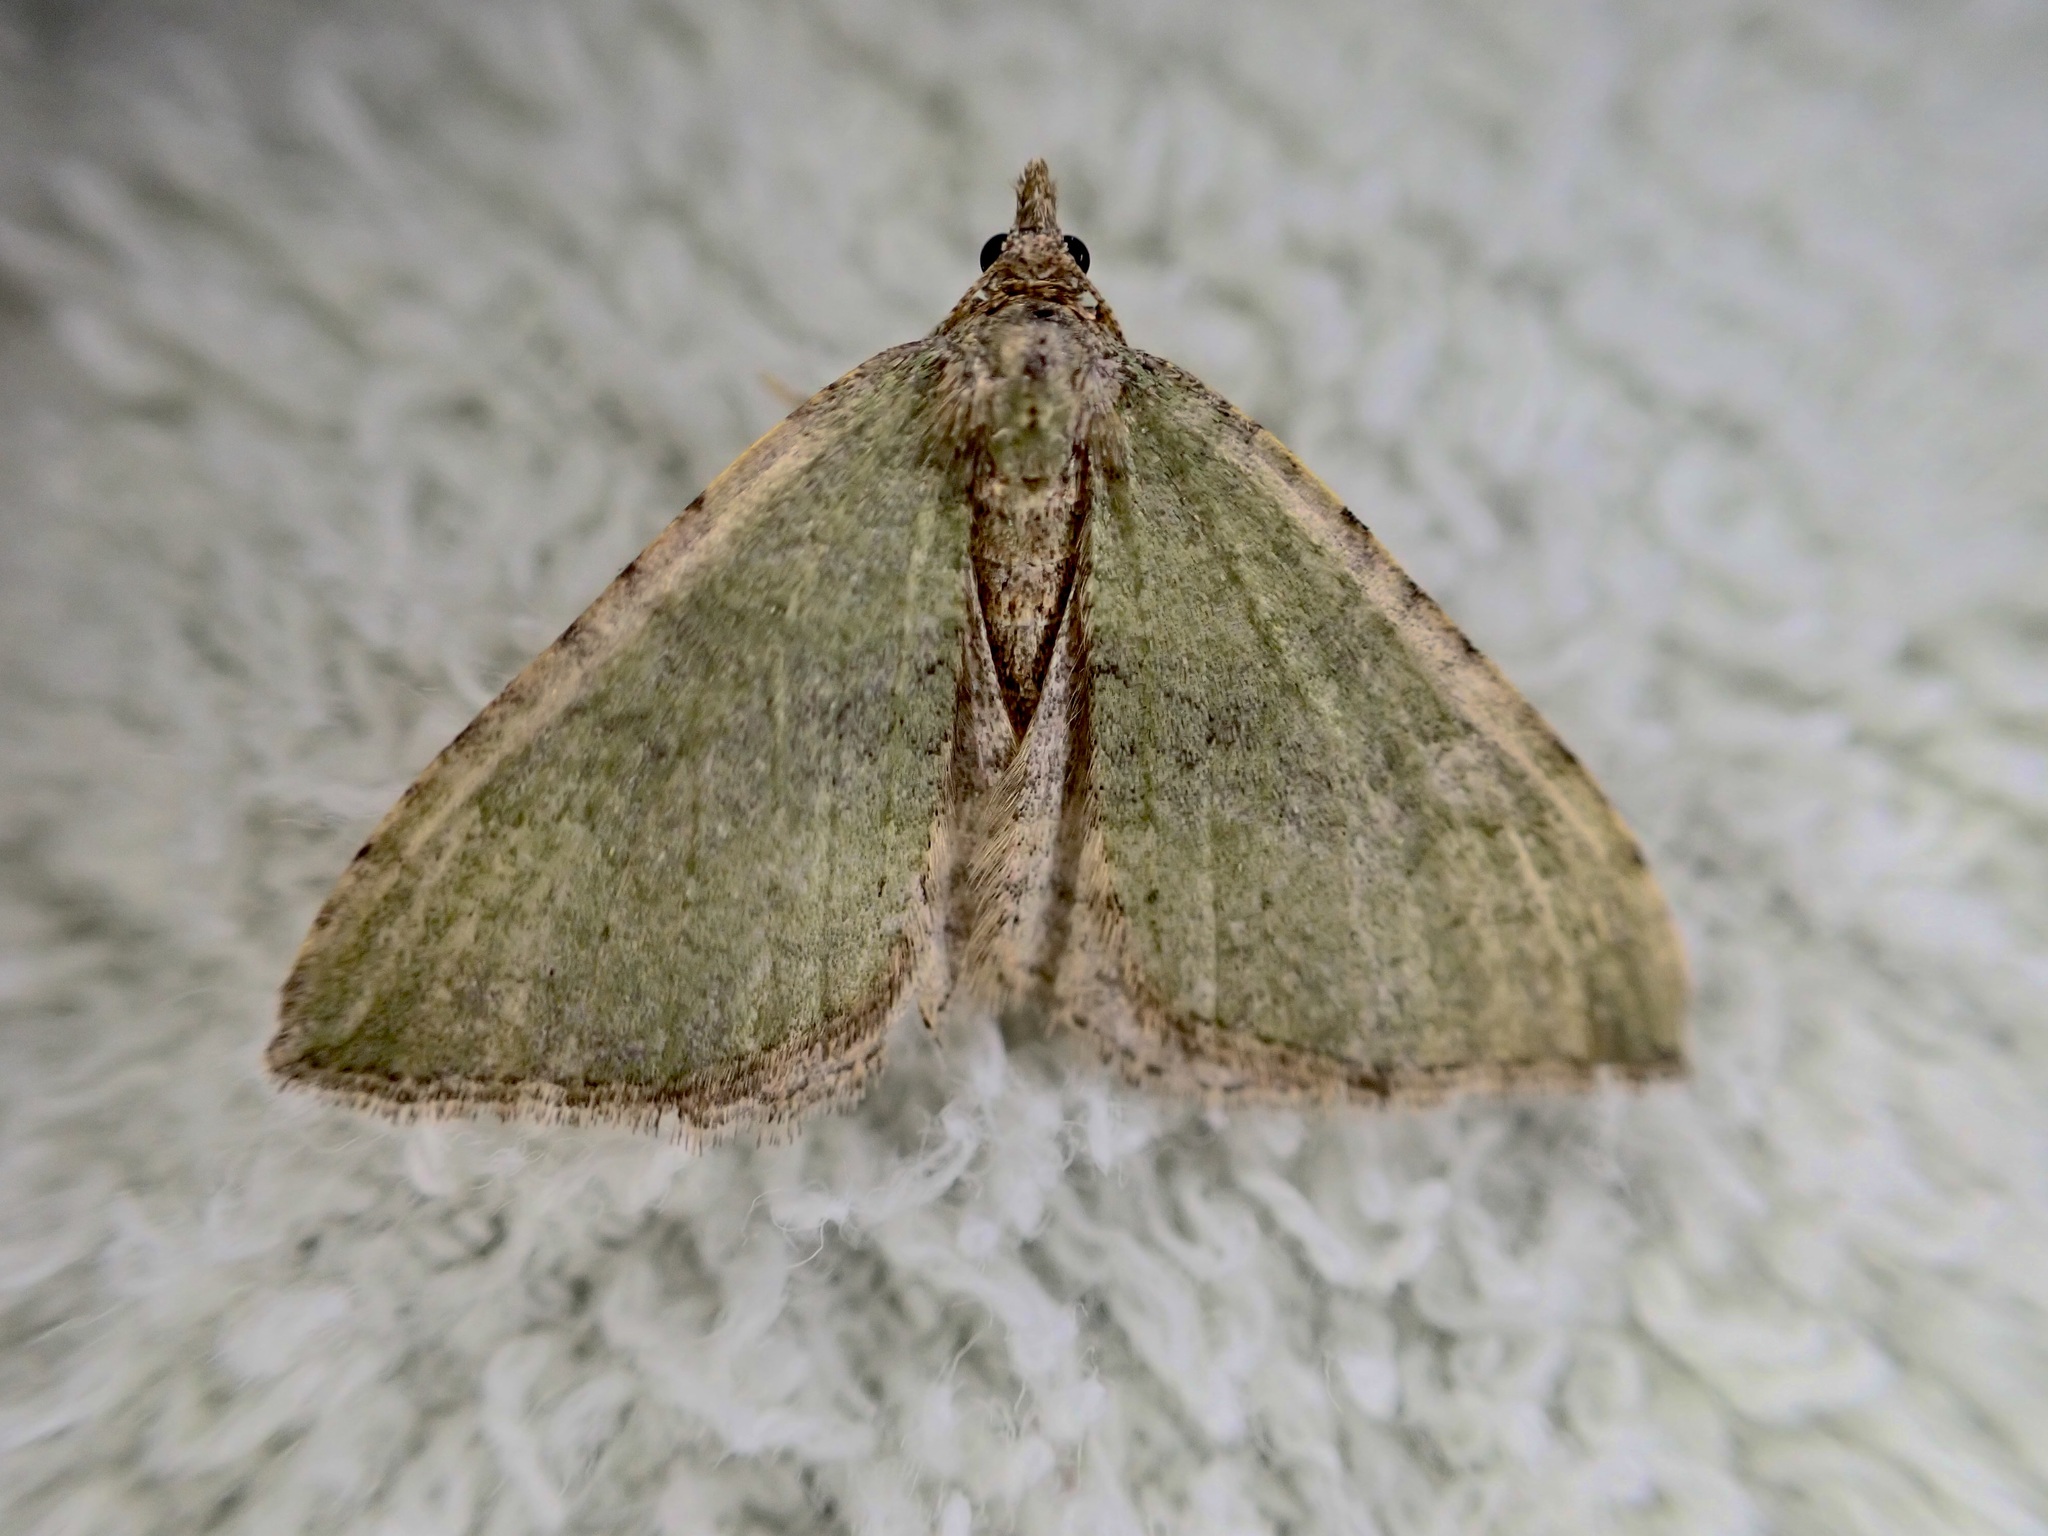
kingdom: Animalia
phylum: Arthropoda
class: Insecta
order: Lepidoptera
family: Geometridae
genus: Epyaxa
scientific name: Epyaxa rosearia
